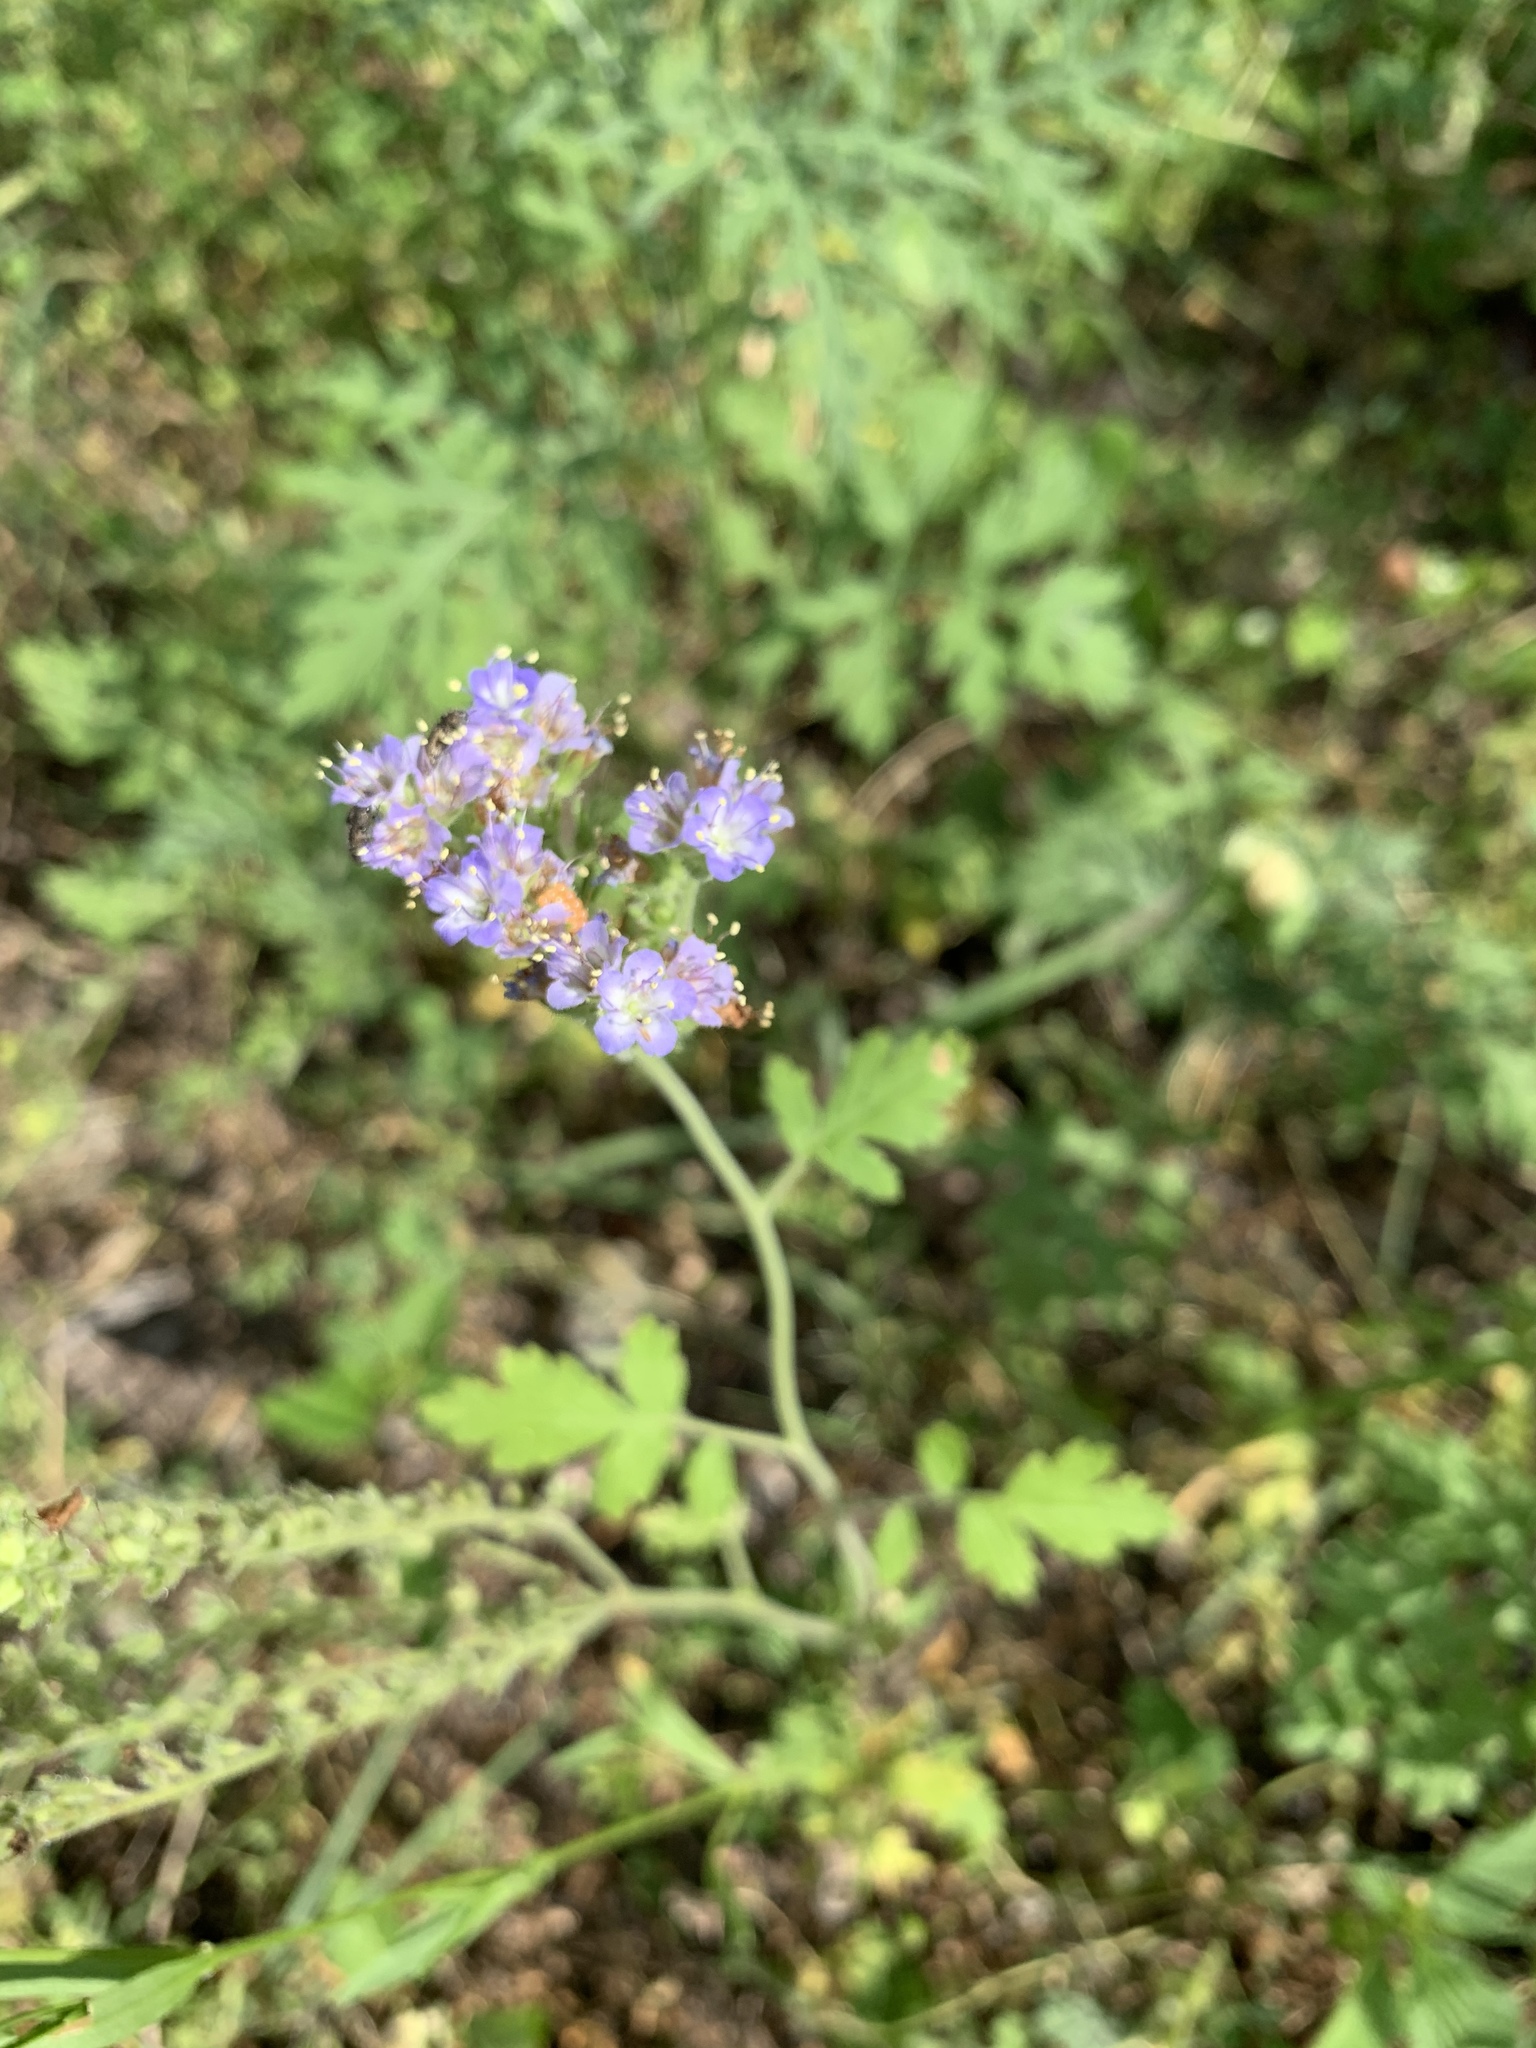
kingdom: Plantae
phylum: Tracheophyta
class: Magnoliopsida
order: Boraginales
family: Hydrophyllaceae
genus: Phacelia
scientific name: Phacelia congesta
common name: Blue curls
